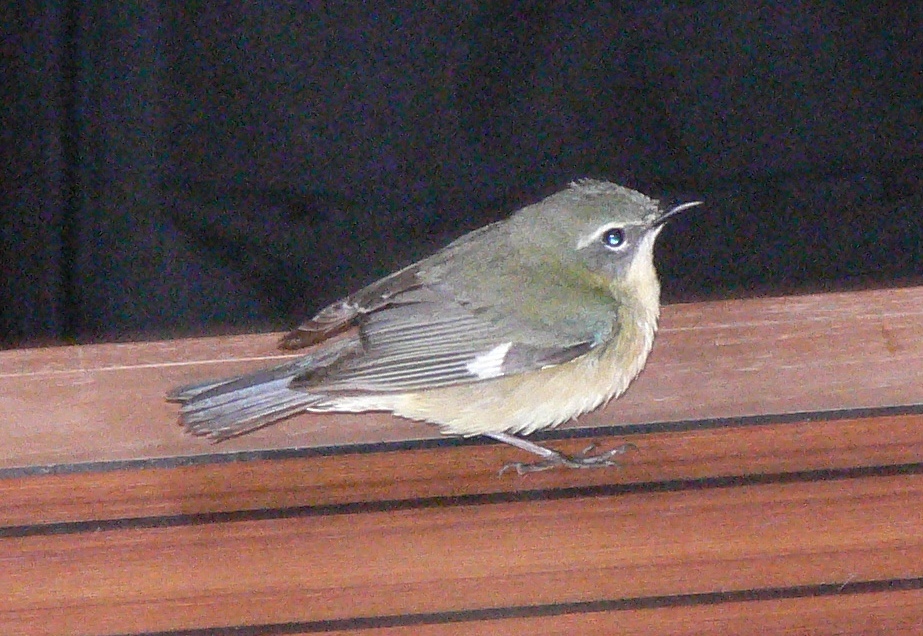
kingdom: Animalia
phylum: Chordata
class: Aves
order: Passeriformes
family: Parulidae
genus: Setophaga
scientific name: Setophaga caerulescens
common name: Black-throated blue warbler
